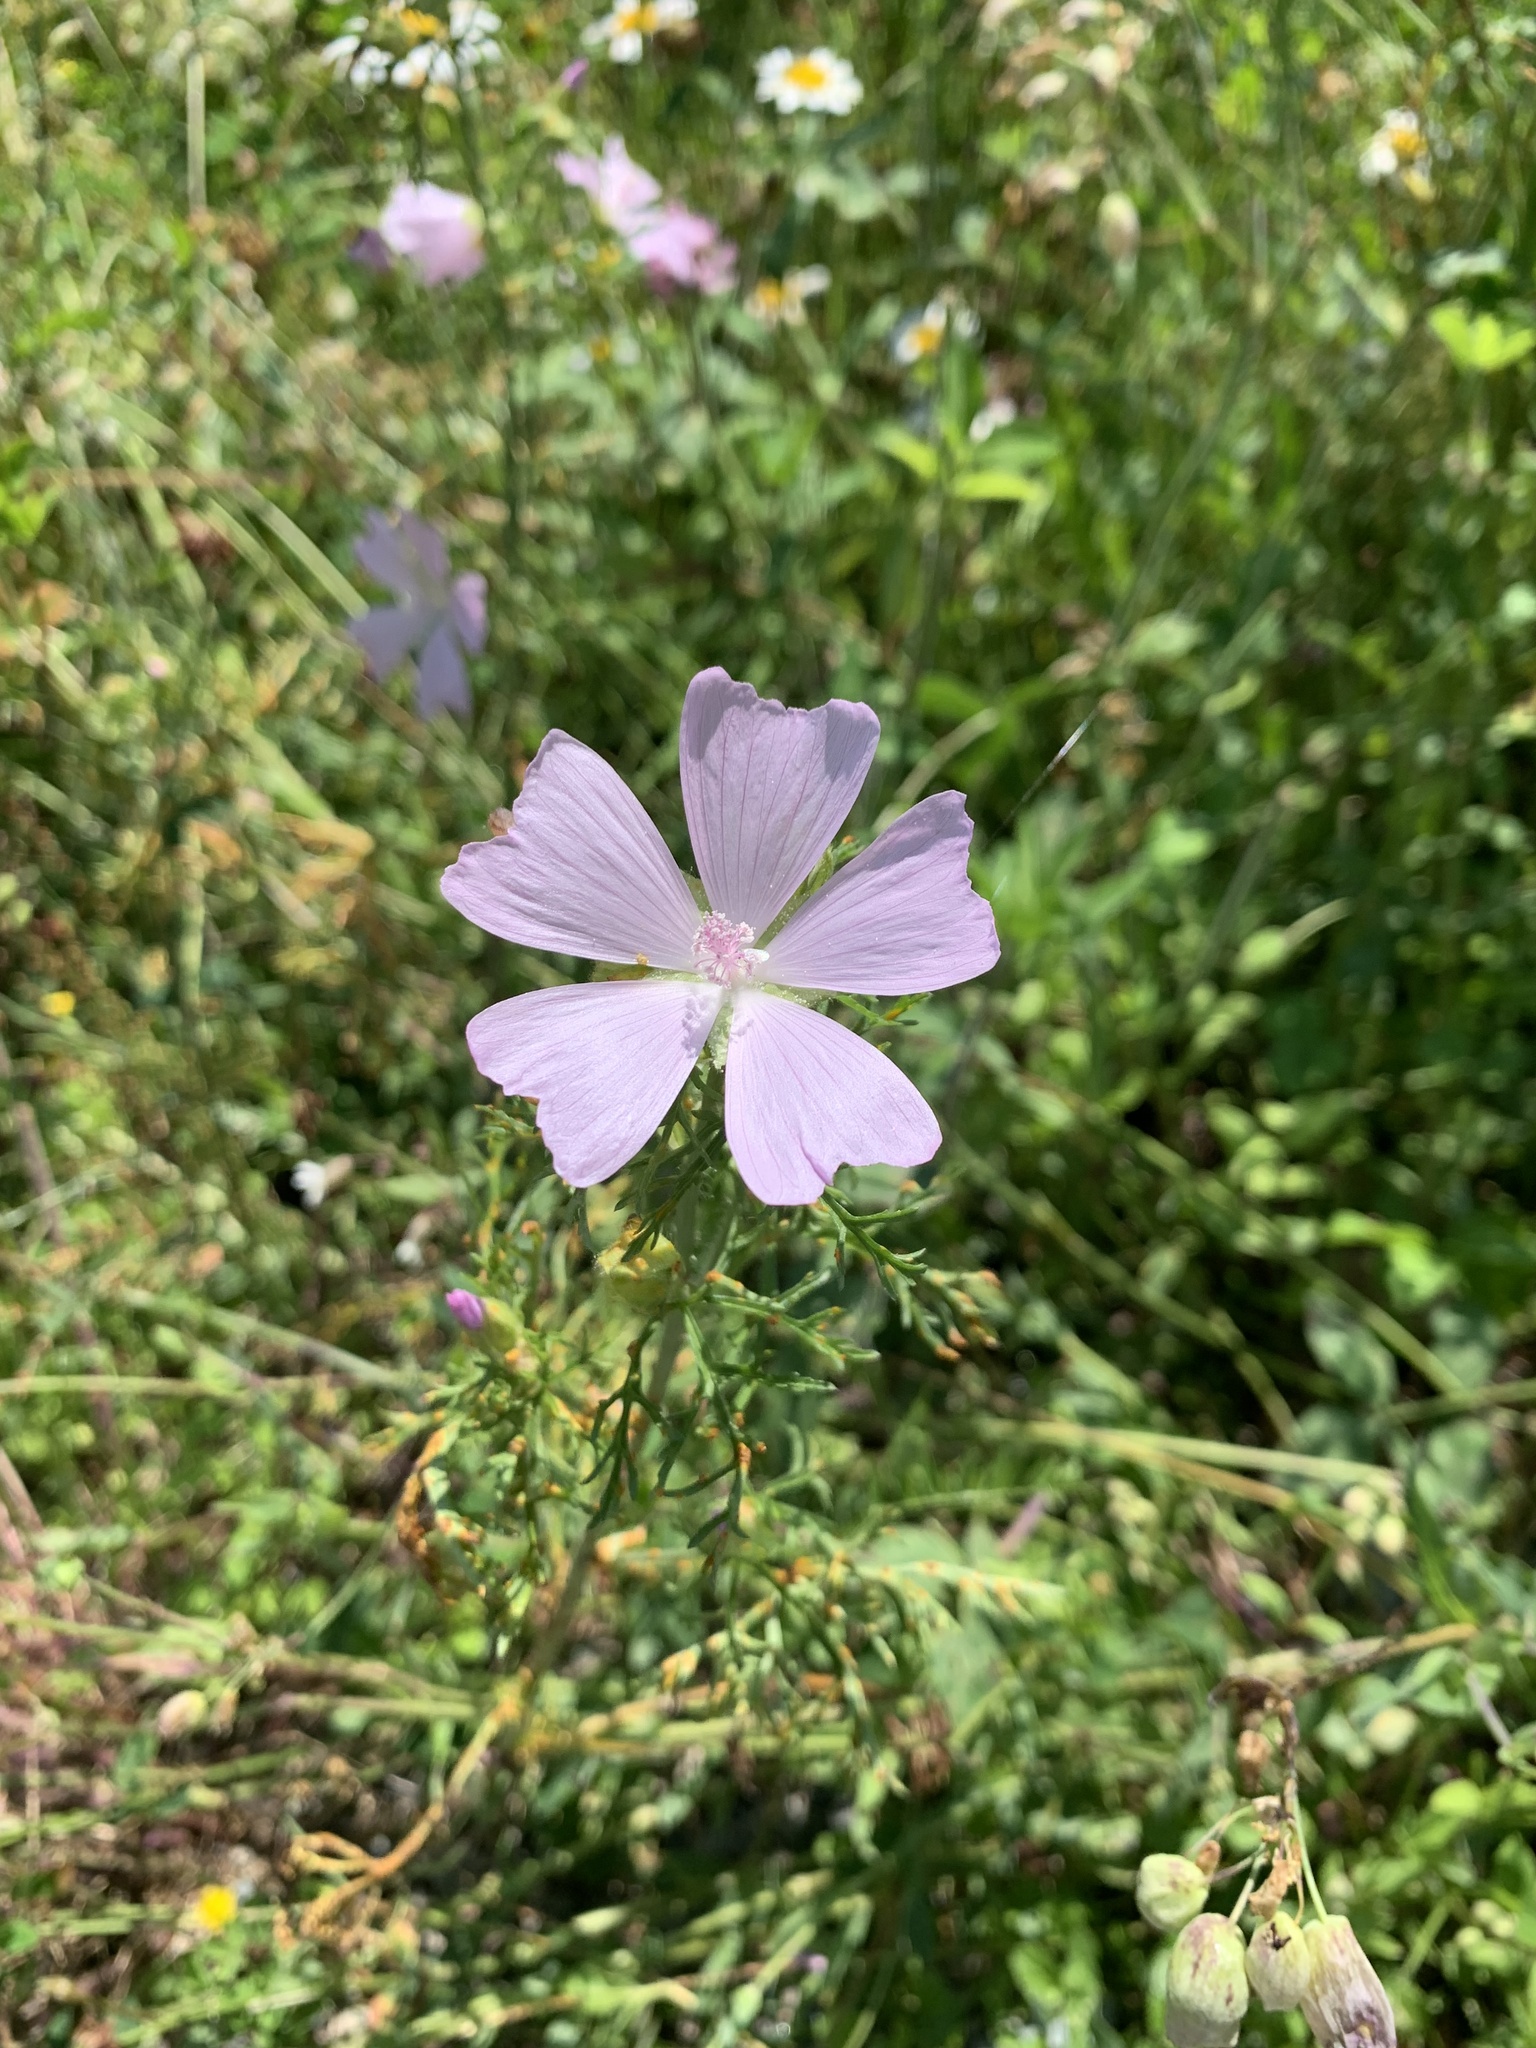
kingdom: Plantae
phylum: Tracheophyta
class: Magnoliopsida
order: Malvales
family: Malvaceae
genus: Malva
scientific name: Malva moschata
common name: Musk mallow
